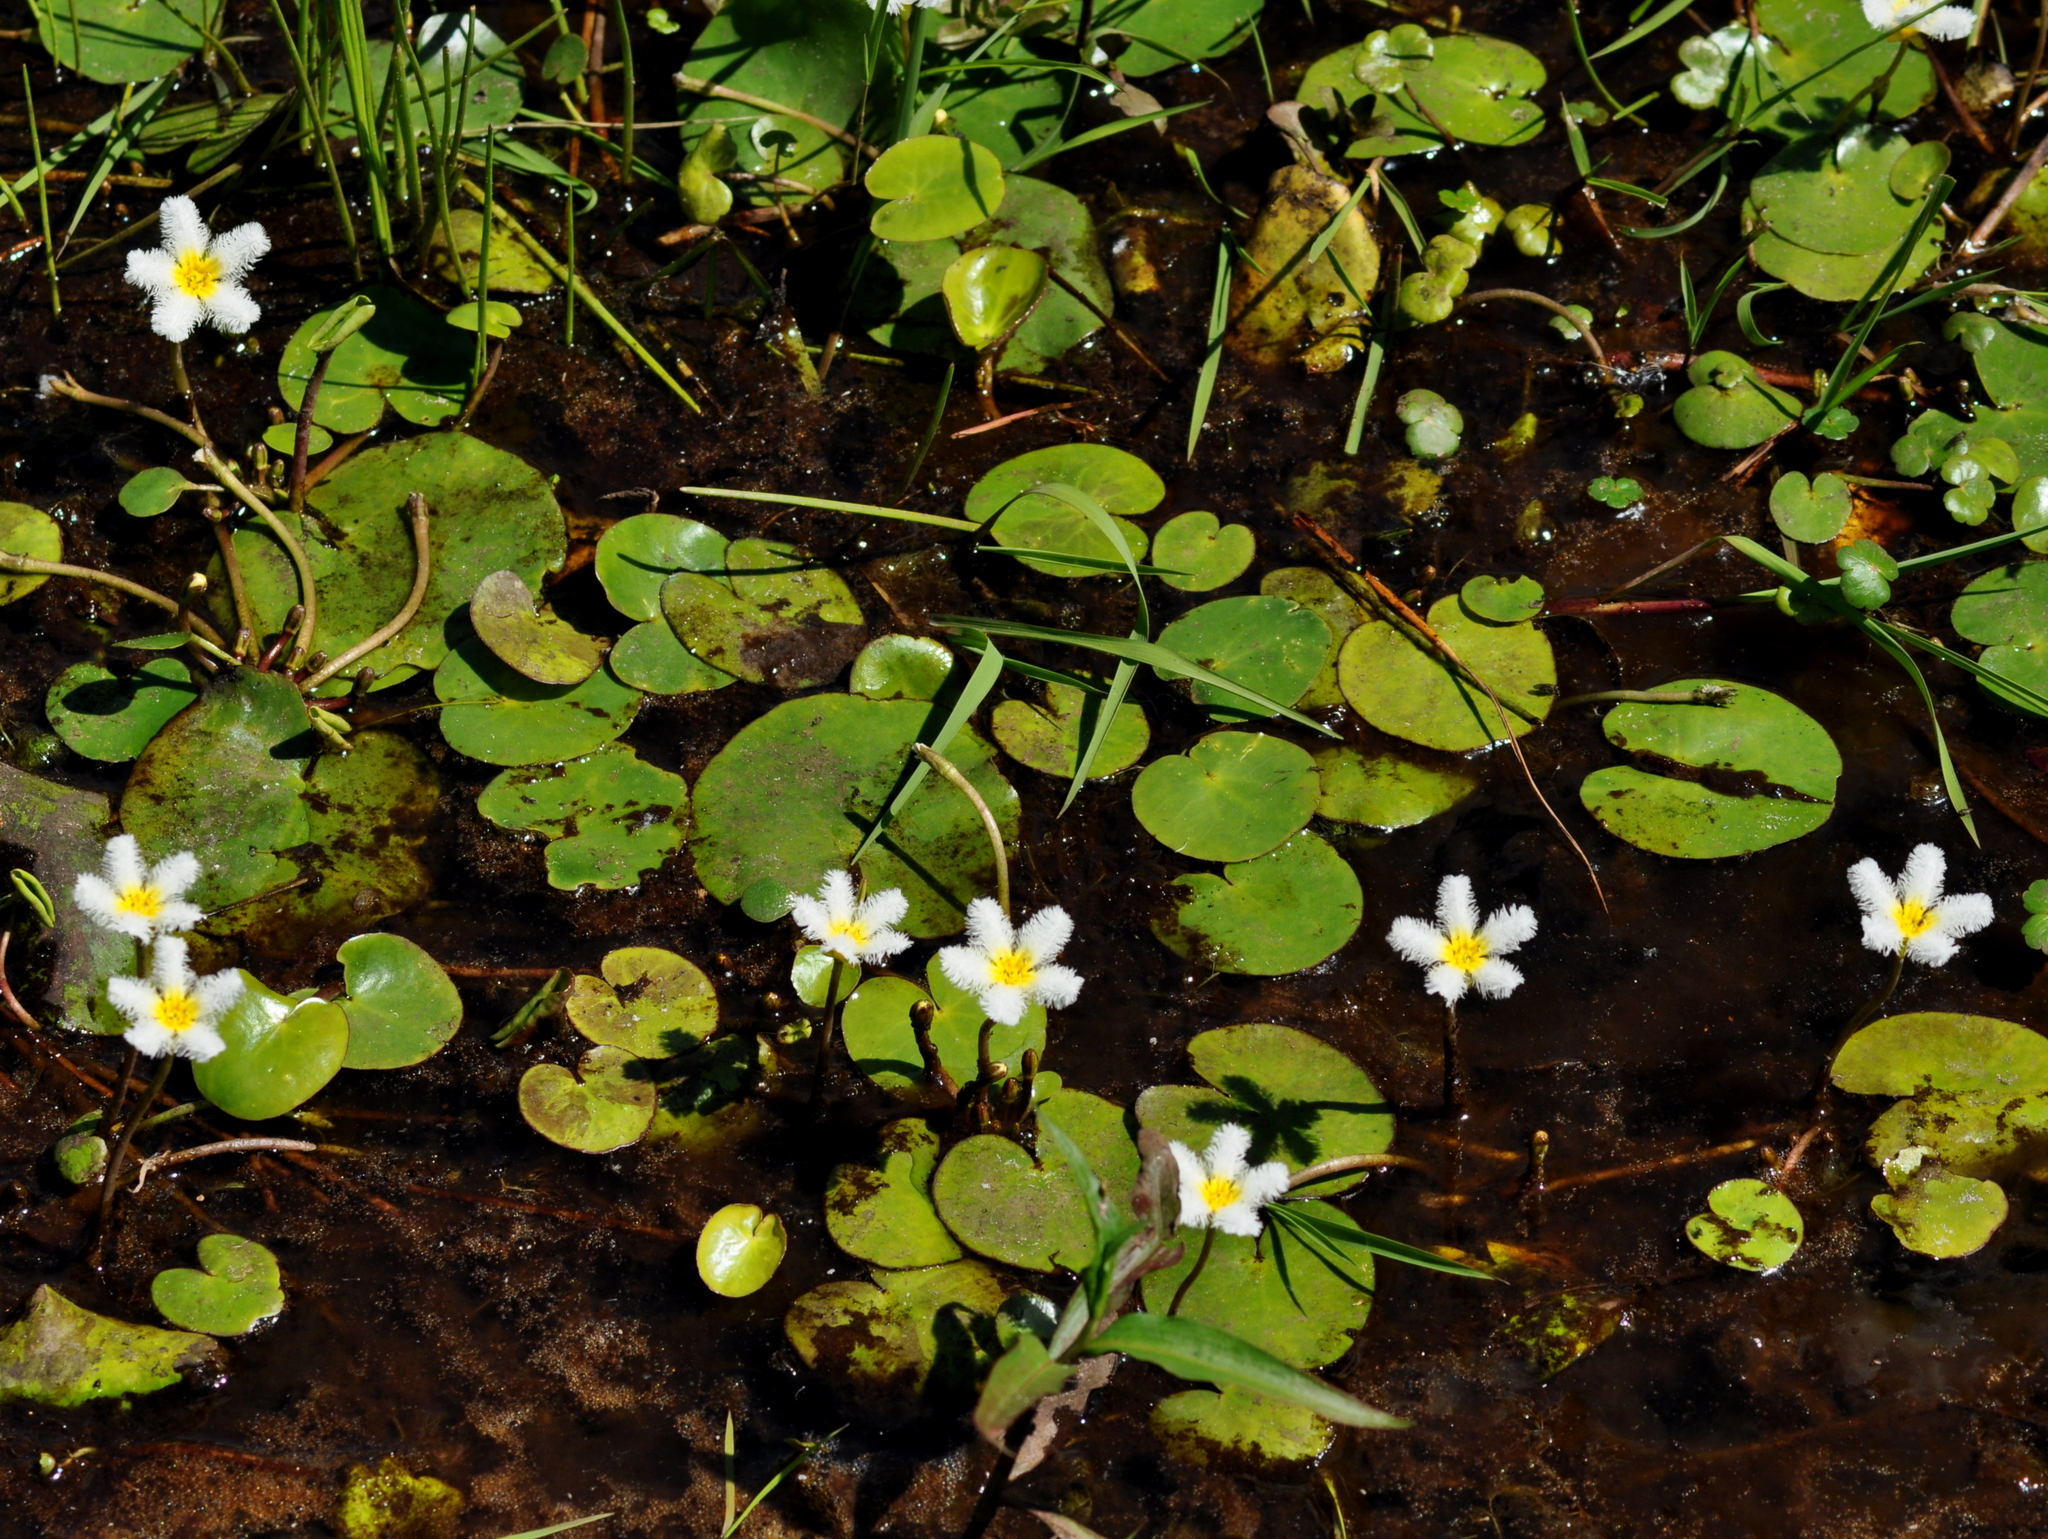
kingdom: Plantae
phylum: Tracheophyta
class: Magnoliopsida
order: Asterales
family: Menyanthaceae
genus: Nymphoides
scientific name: Nymphoides humboldtiana
